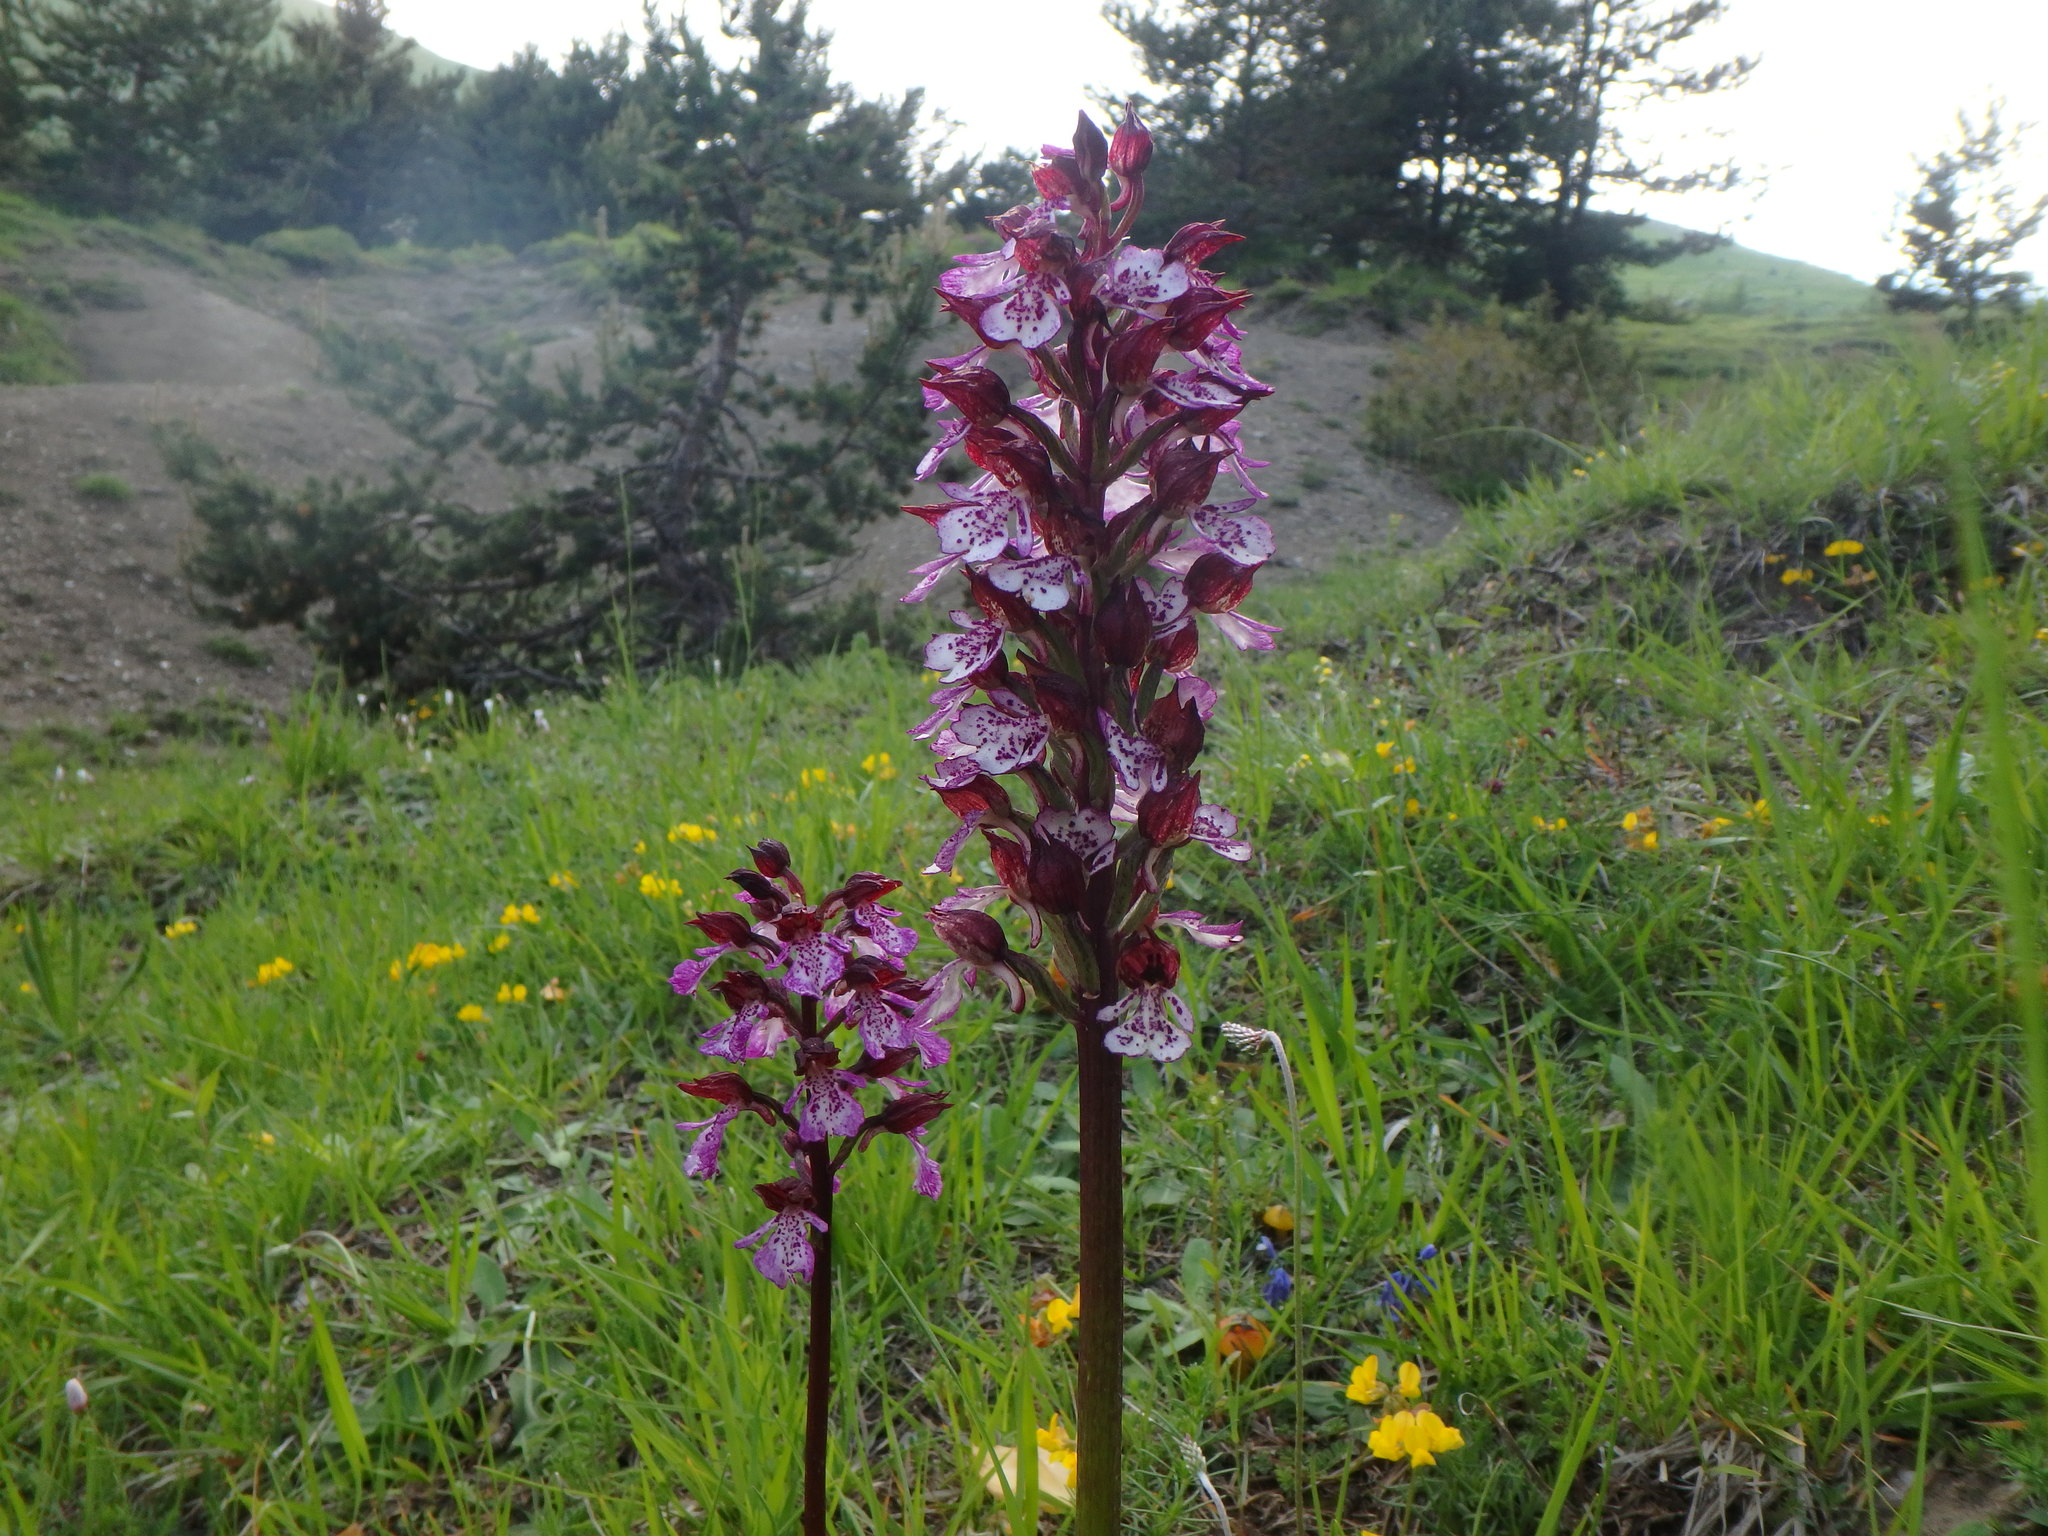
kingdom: Plantae
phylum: Tracheophyta
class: Liliopsida
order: Asparagales
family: Orchidaceae
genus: Orchis
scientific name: Orchis purpurea
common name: Lady orchid
